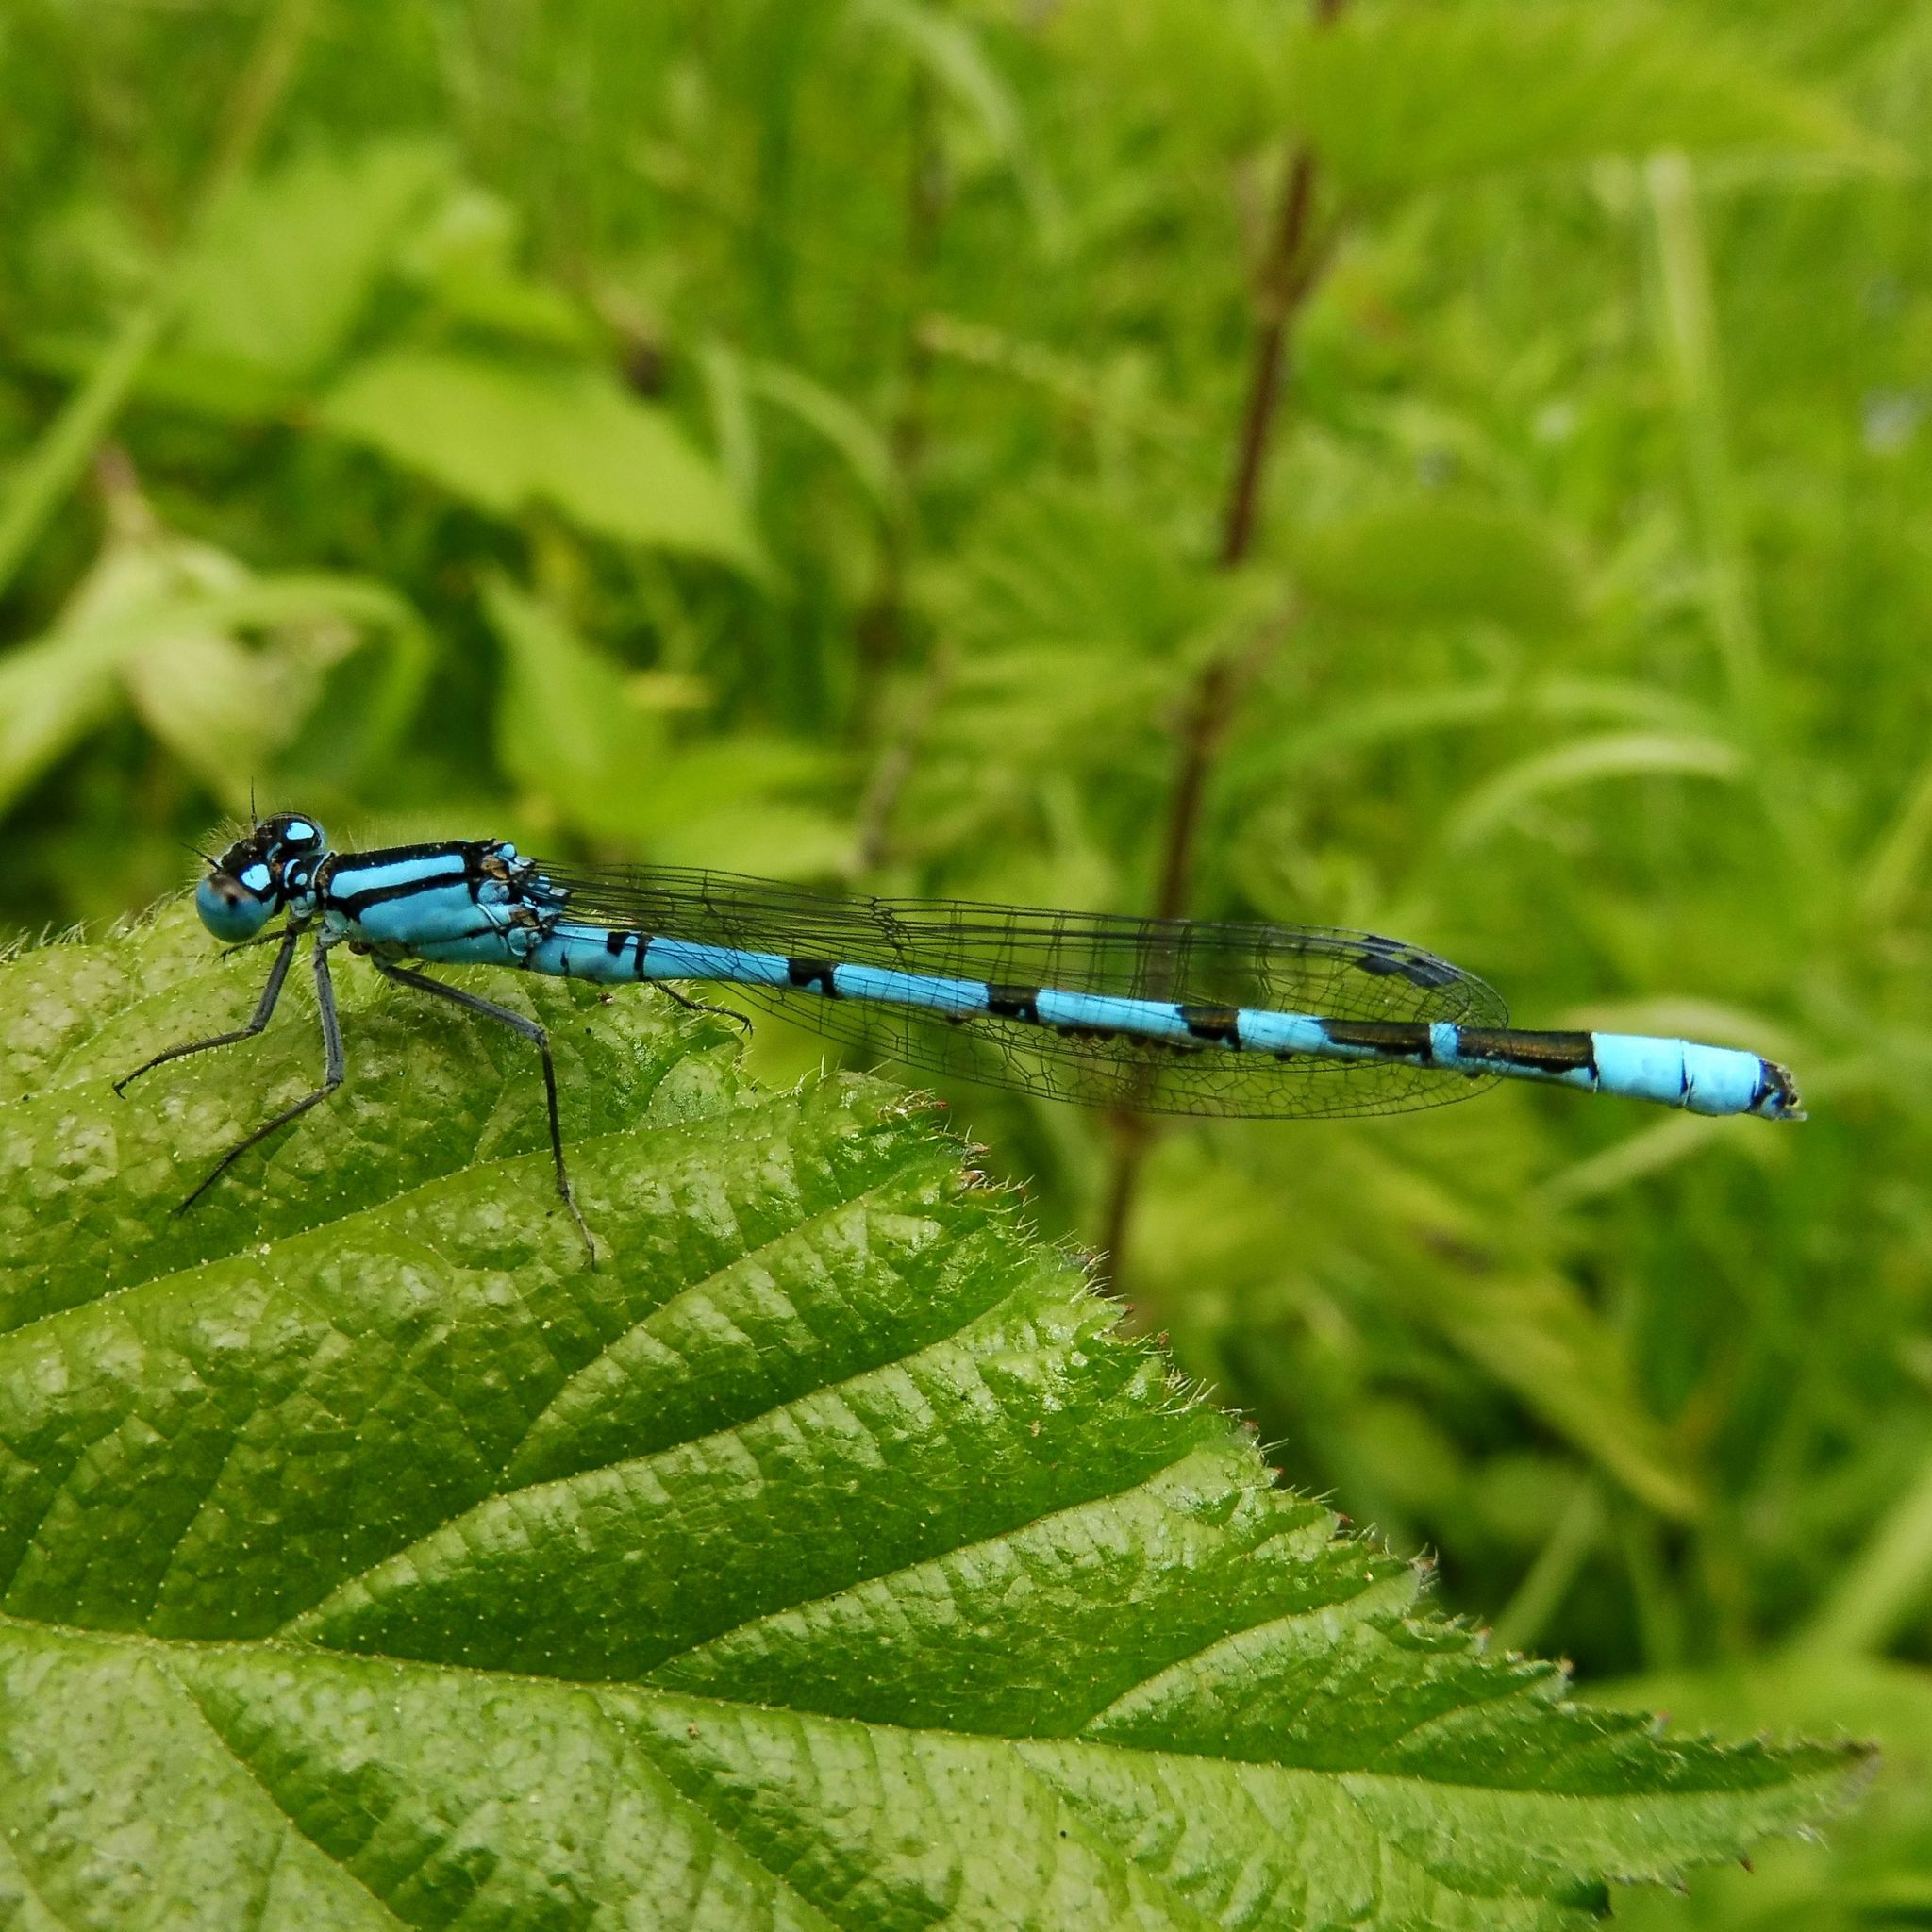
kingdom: Animalia
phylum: Arthropoda
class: Insecta
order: Odonata
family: Coenagrionidae
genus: Enallagma
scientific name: Enallagma cyathigerum
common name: Common blue damselfly
